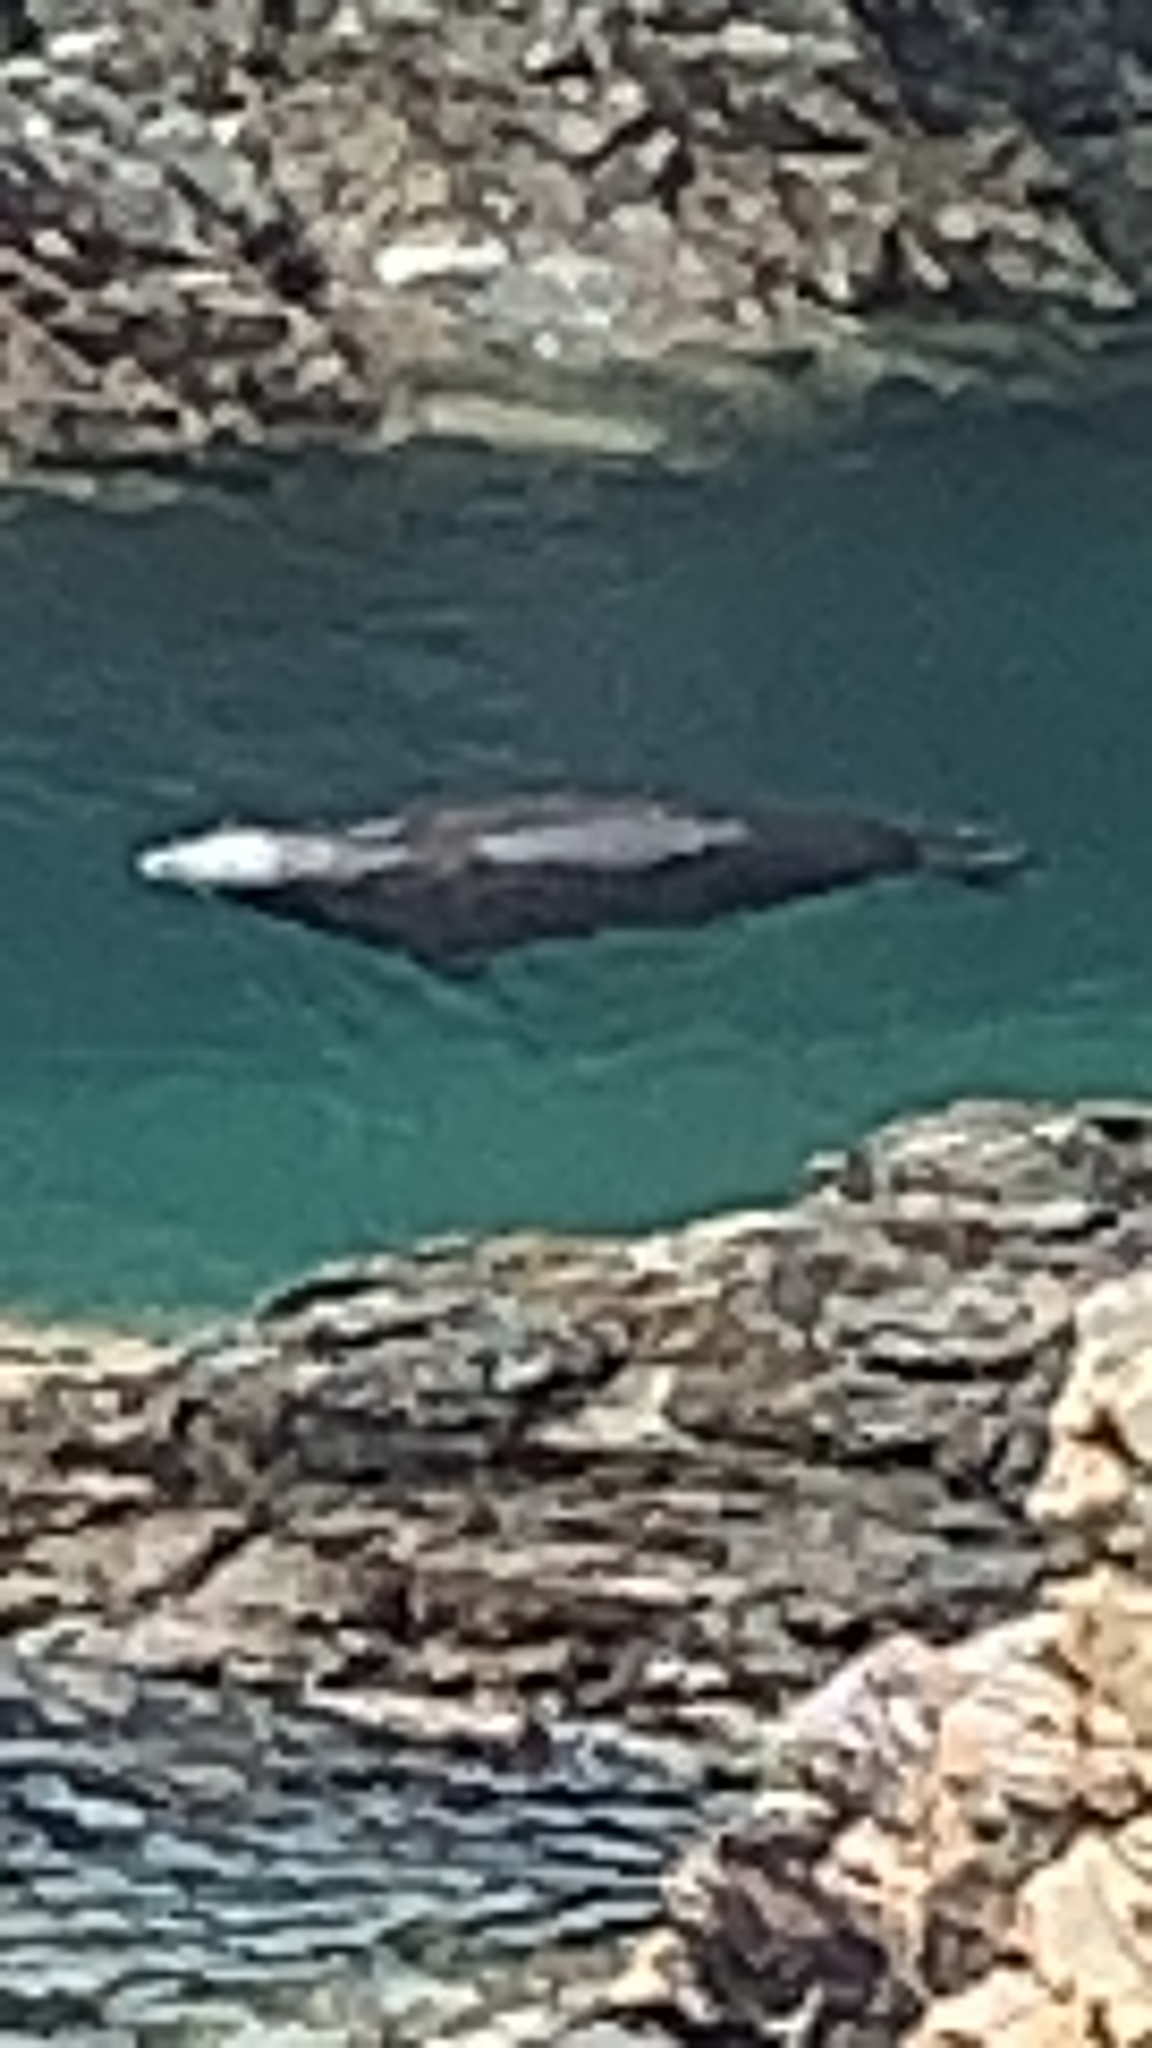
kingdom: Animalia
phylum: Chordata
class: Mammalia
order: Carnivora
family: Phocidae
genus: Halichoerus
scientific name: Halichoerus grypus
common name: Grey seal
